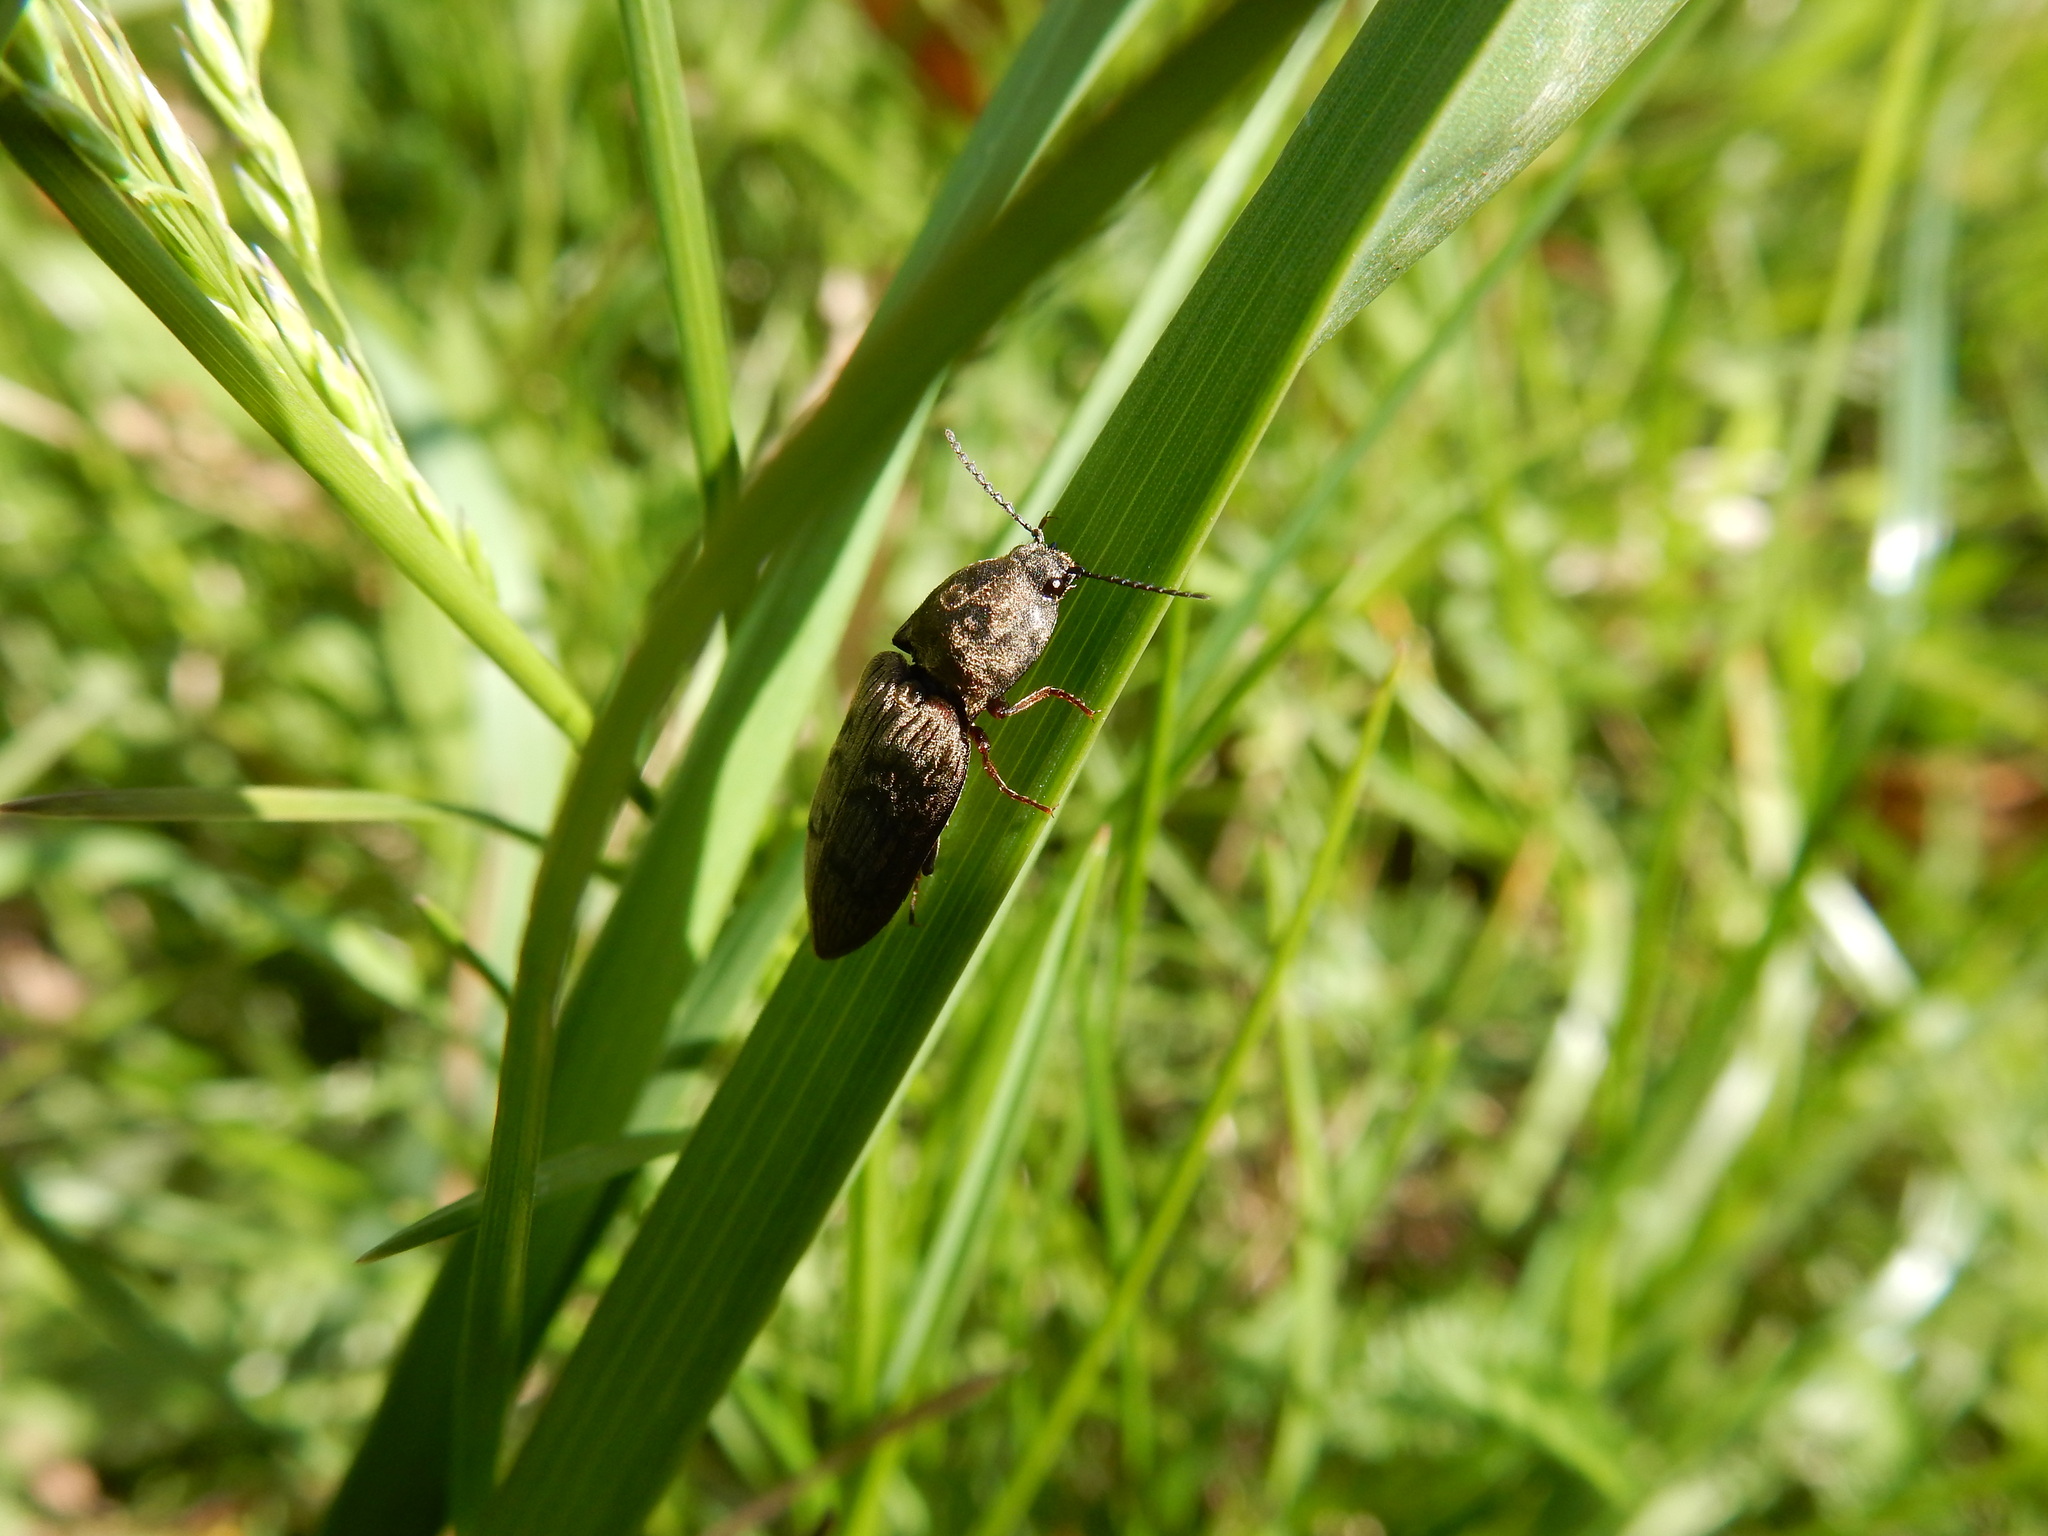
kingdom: Animalia
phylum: Arthropoda
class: Insecta
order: Coleoptera
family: Elateridae
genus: Prosternon
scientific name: Prosternon tessellatum
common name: Chequered click beetle
